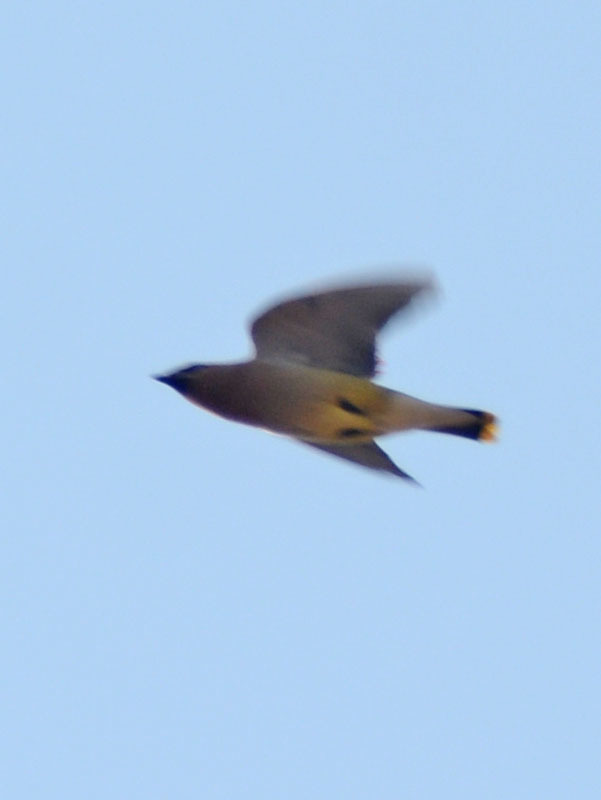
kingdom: Animalia
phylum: Chordata
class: Aves
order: Passeriformes
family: Bombycillidae
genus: Bombycilla
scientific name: Bombycilla cedrorum
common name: Cedar waxwing
